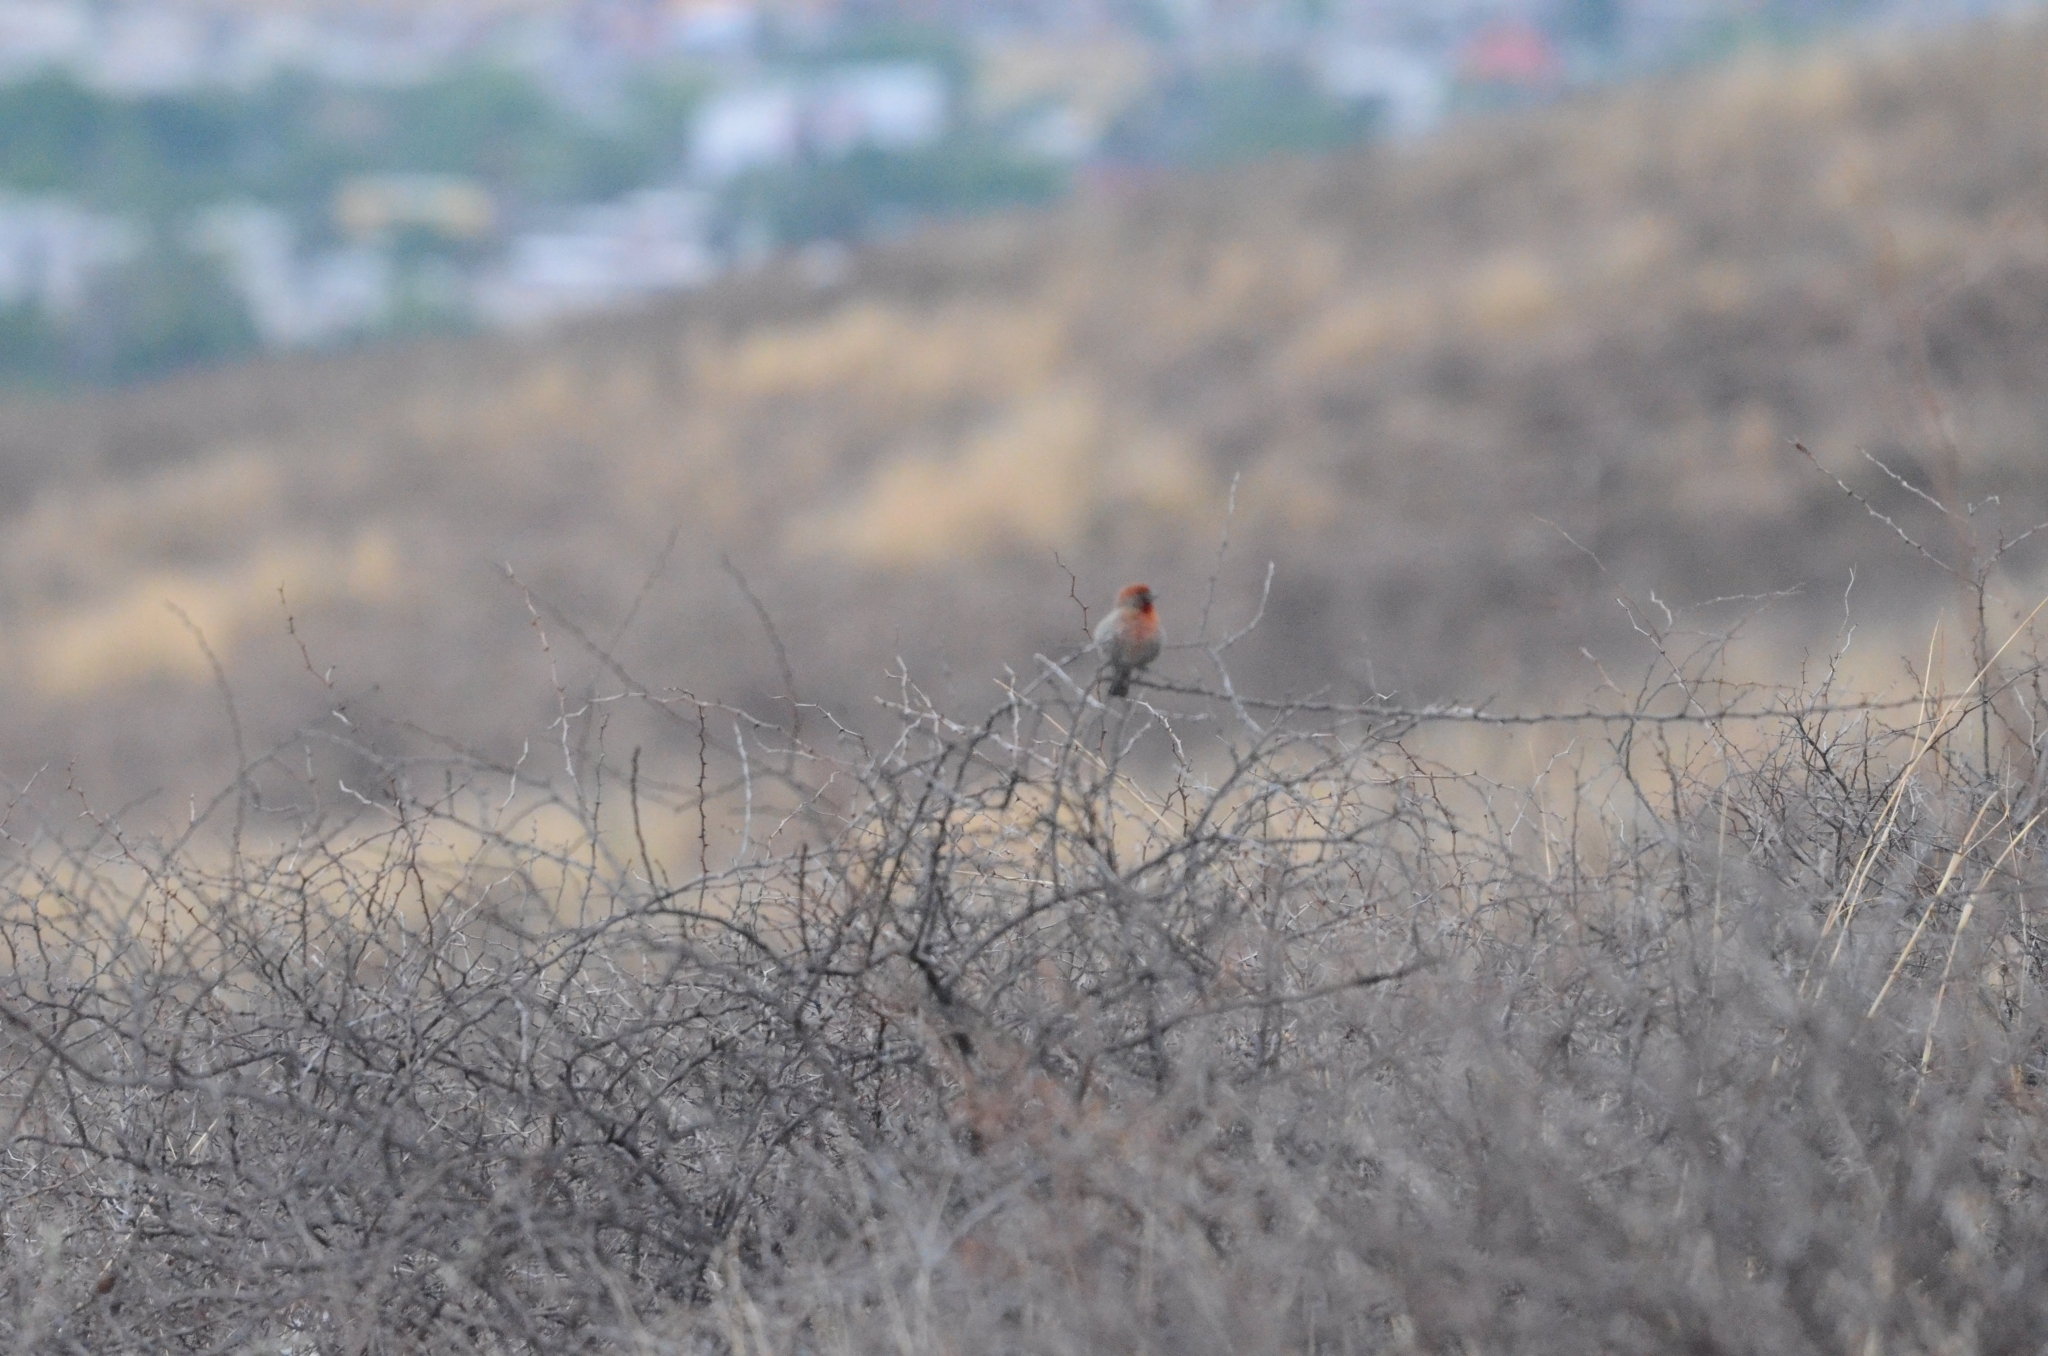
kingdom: Animalia
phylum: Chordata
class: Aves
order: Passeriformes
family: Fringillidae
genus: Haemorhous
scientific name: Haemorhous mexicanus
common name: House finch
